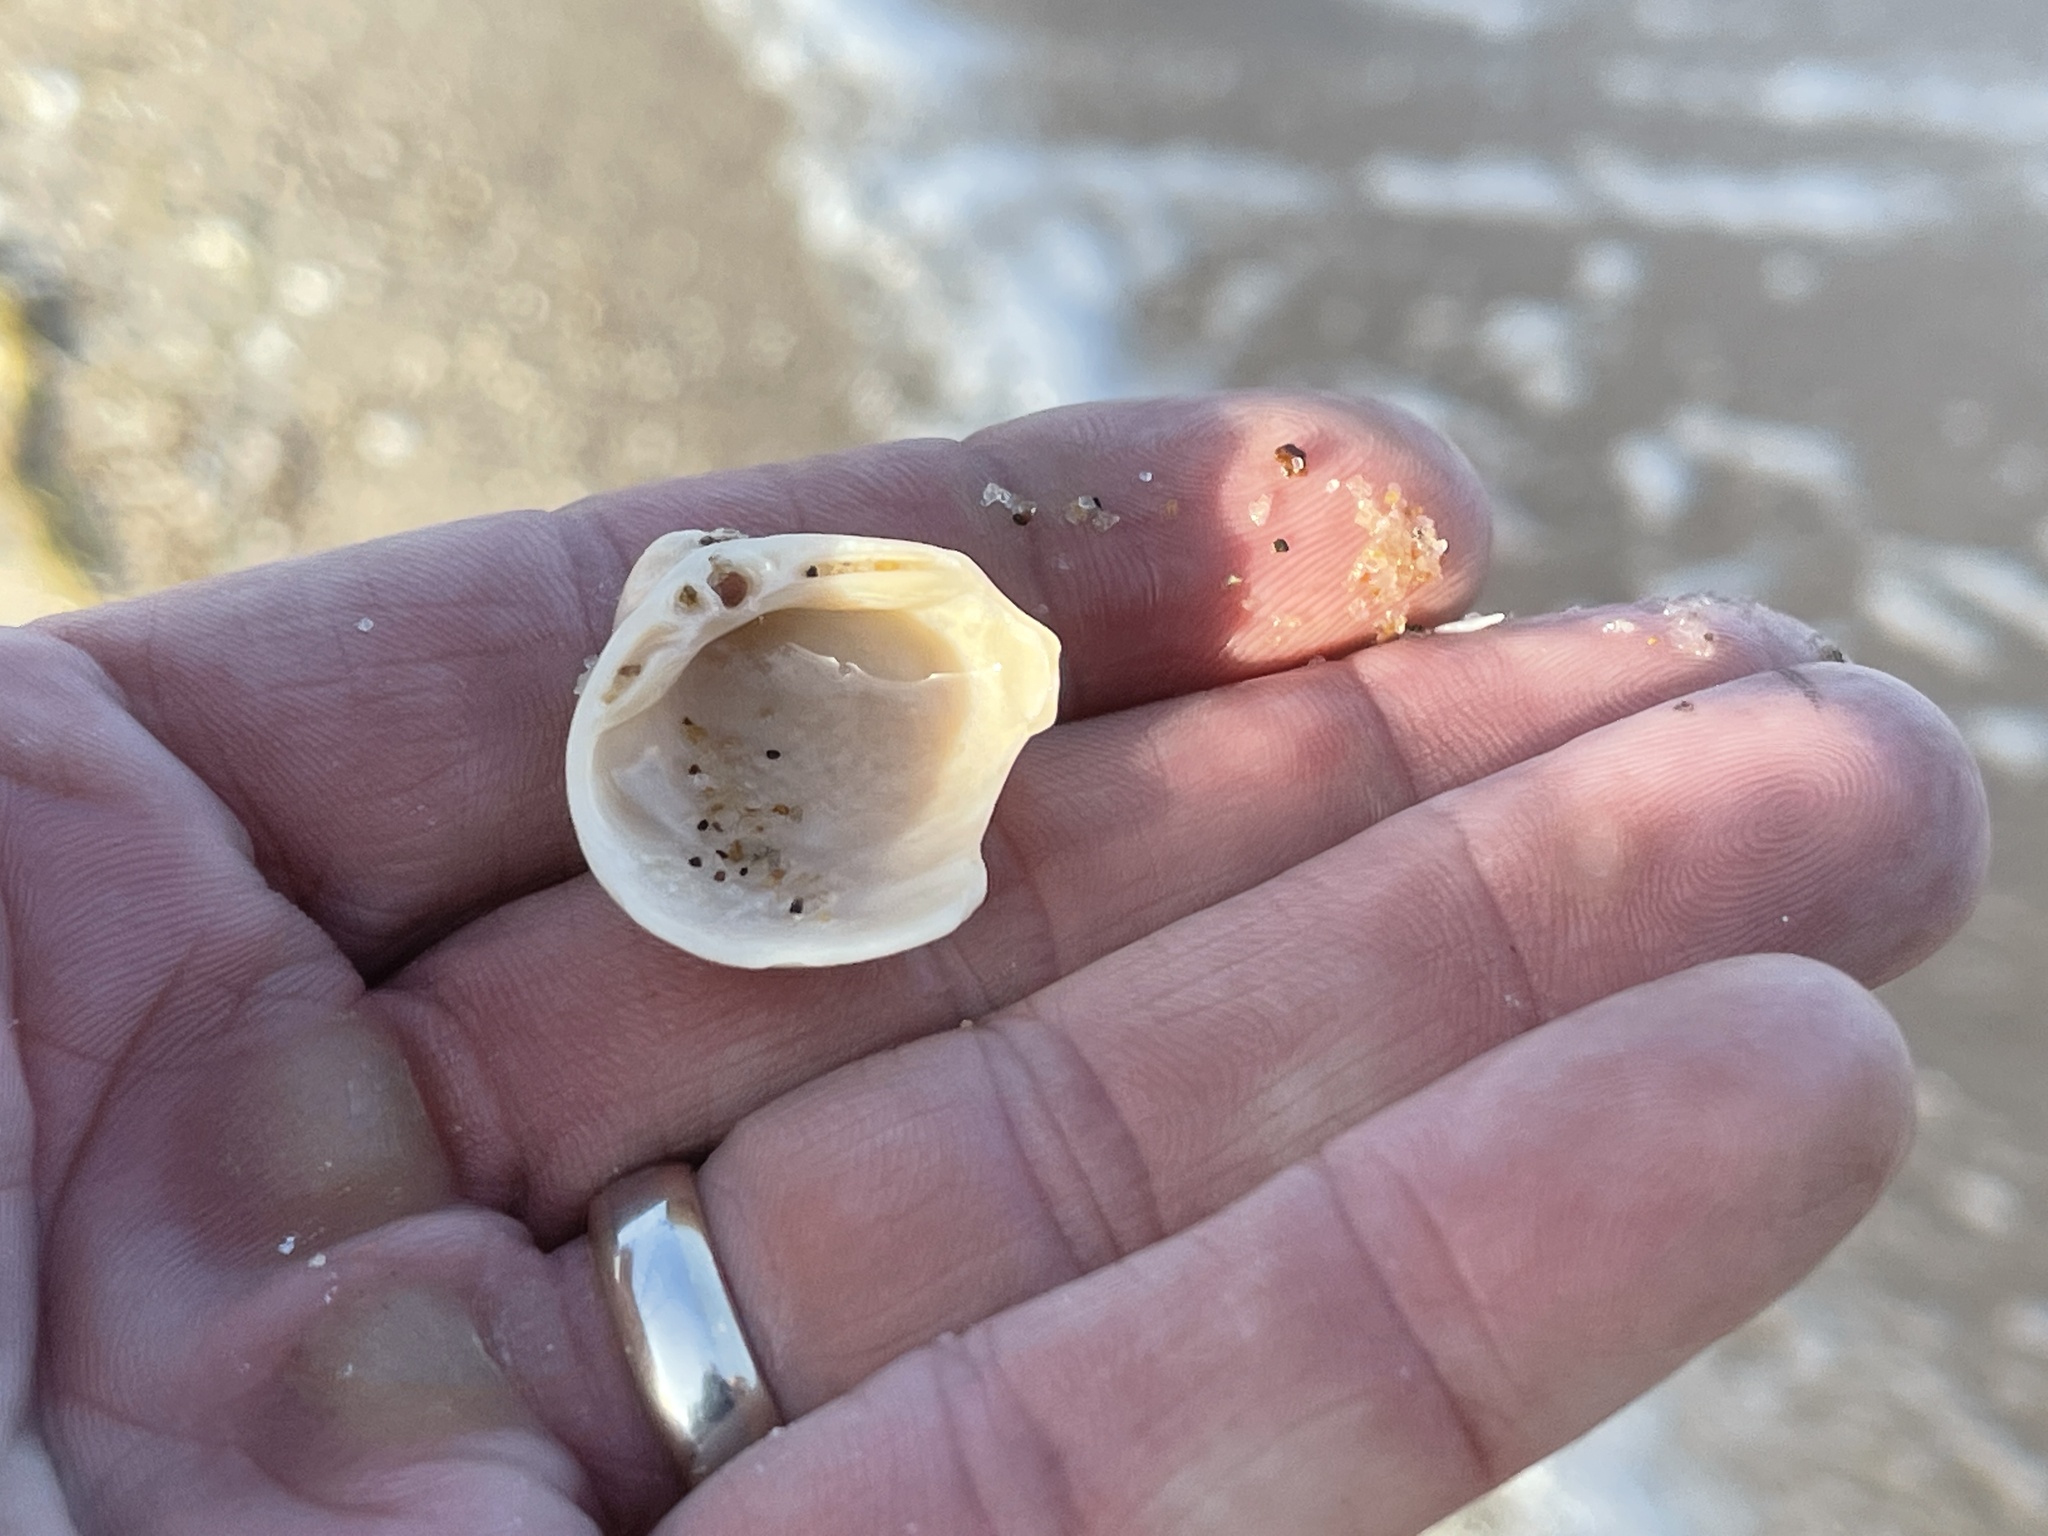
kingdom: Animalia
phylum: Mollusca
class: Bivalvia
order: Venerida
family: Mactridae
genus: Rangia
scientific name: Rangia cuneata
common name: Atlantic rangia
